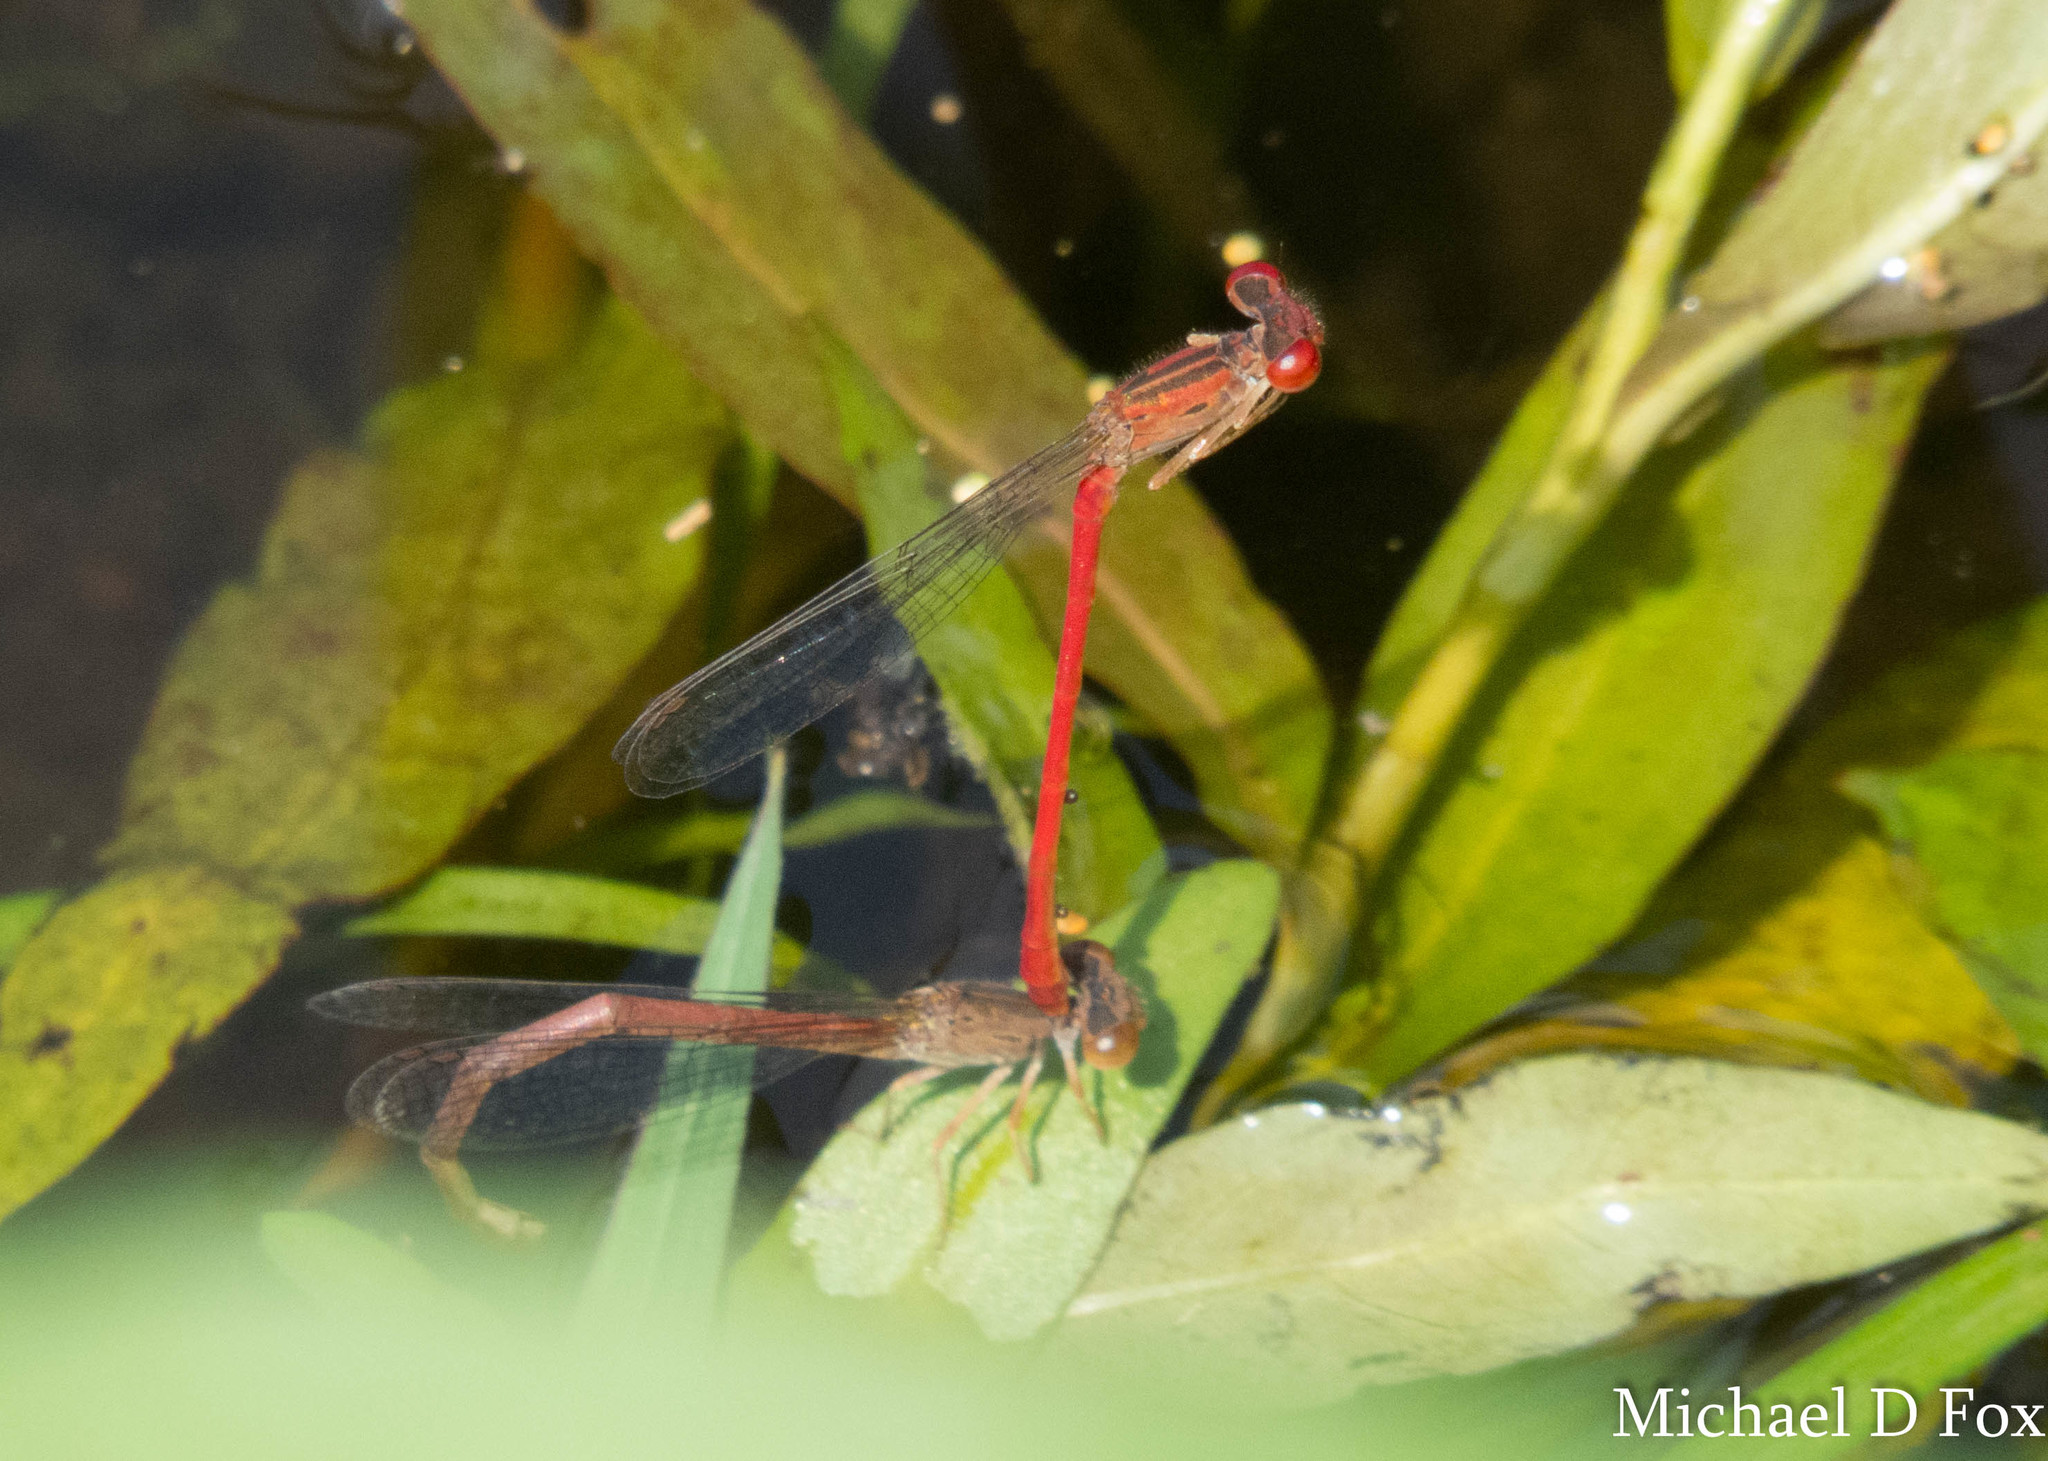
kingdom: Animalia
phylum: Arthropoda
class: Insecta
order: Odonata
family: Coenagrionidae
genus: Telebasis
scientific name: Telebasis salva
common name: Desert firetail
